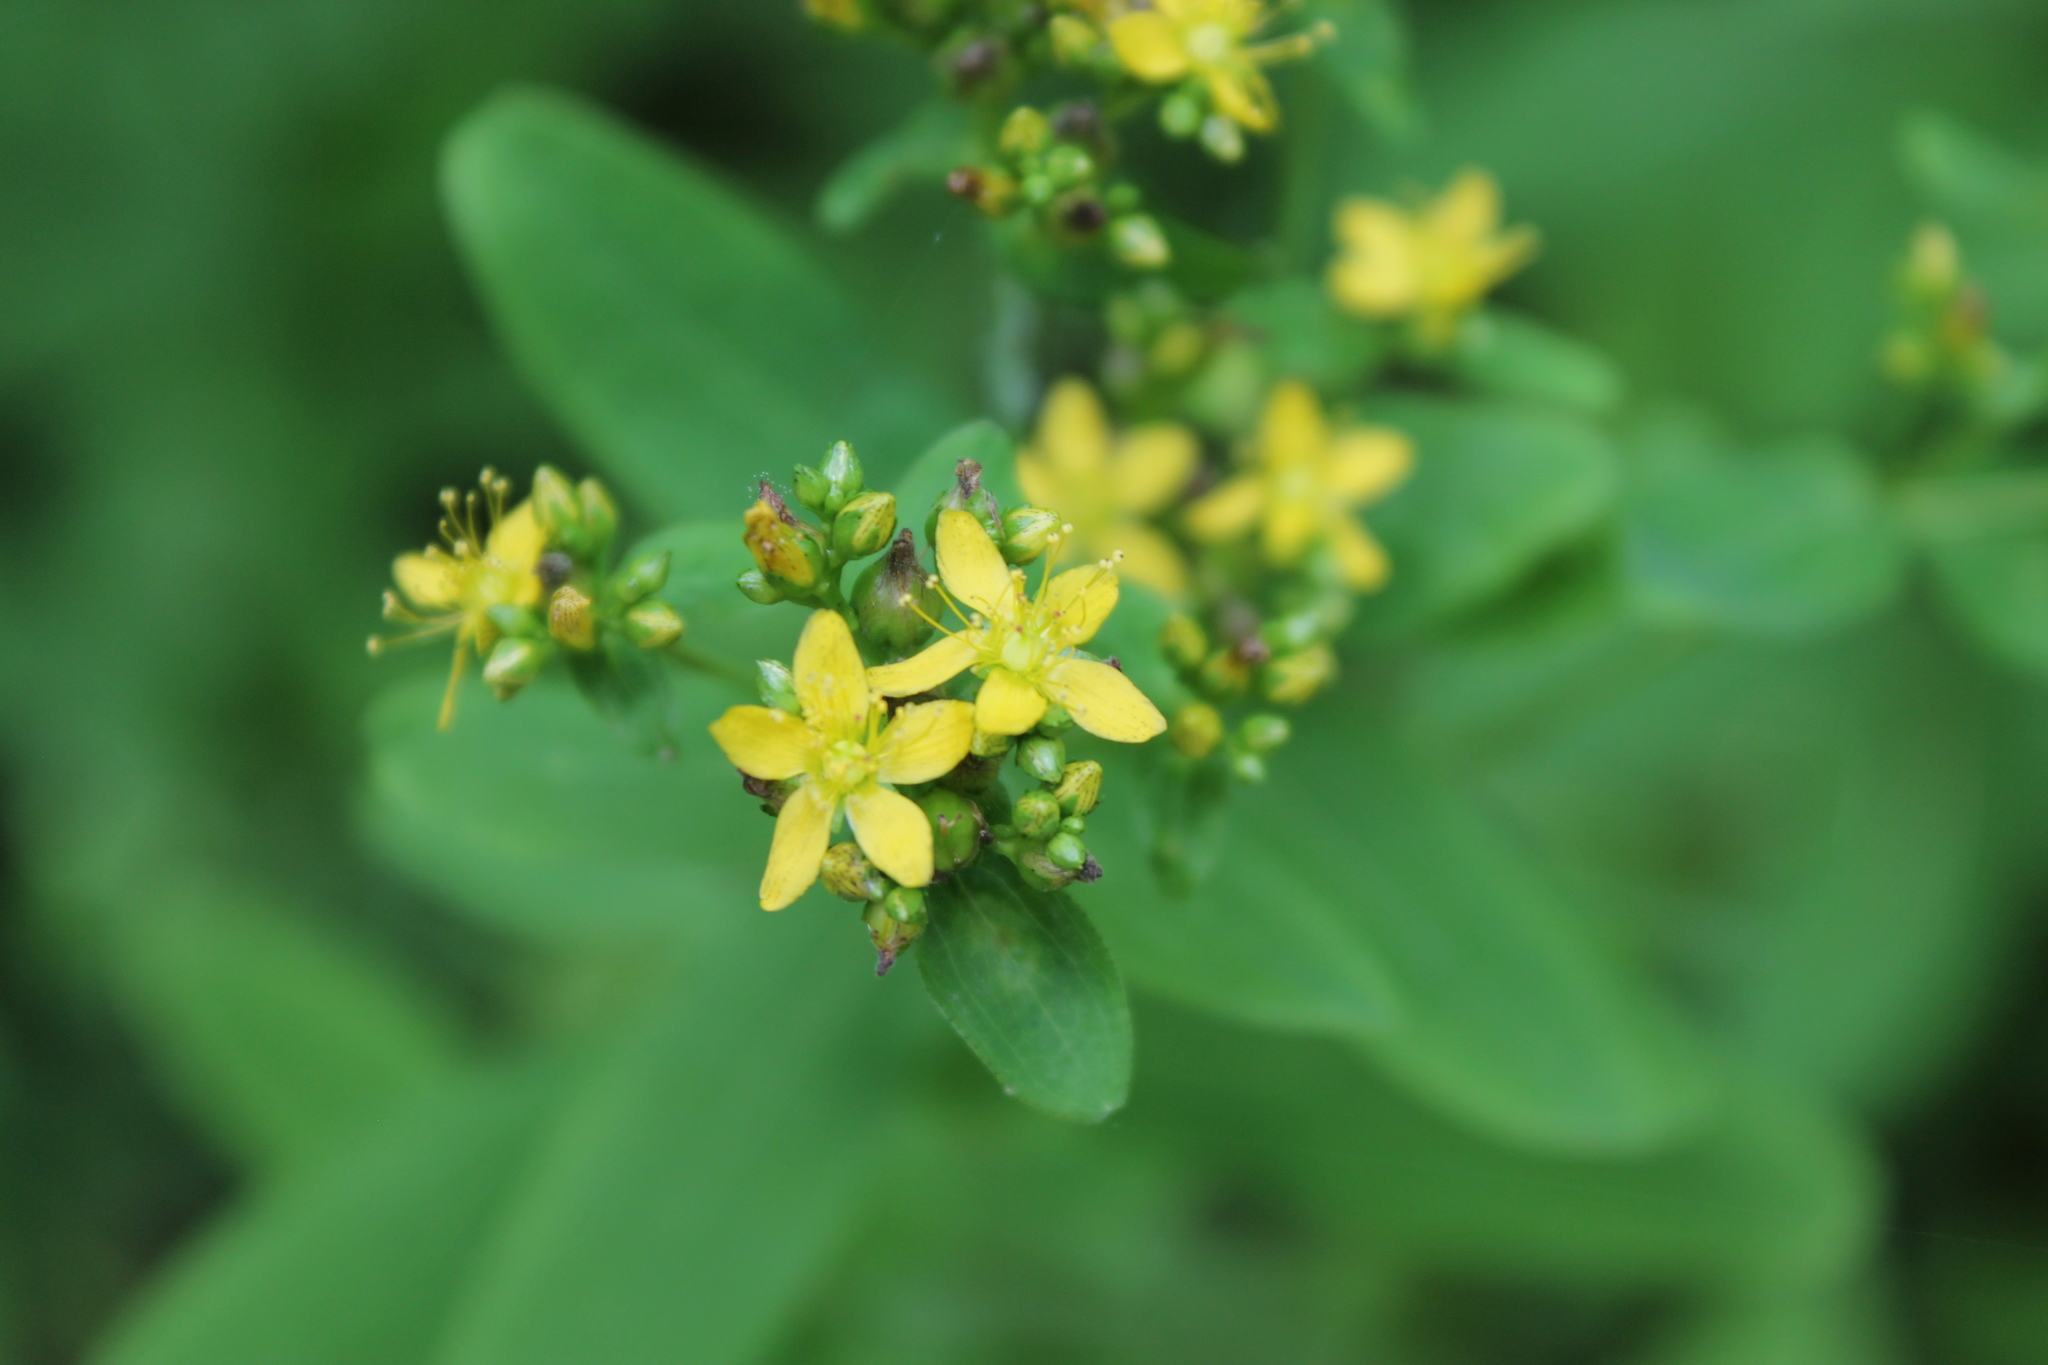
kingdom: Plantae
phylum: Tracheophyta
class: Magnoliopsida
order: Malpighiales
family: Hypericaceae
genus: Hypericum
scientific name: Hypericum punctatum
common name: Spotted st. john's-wort
